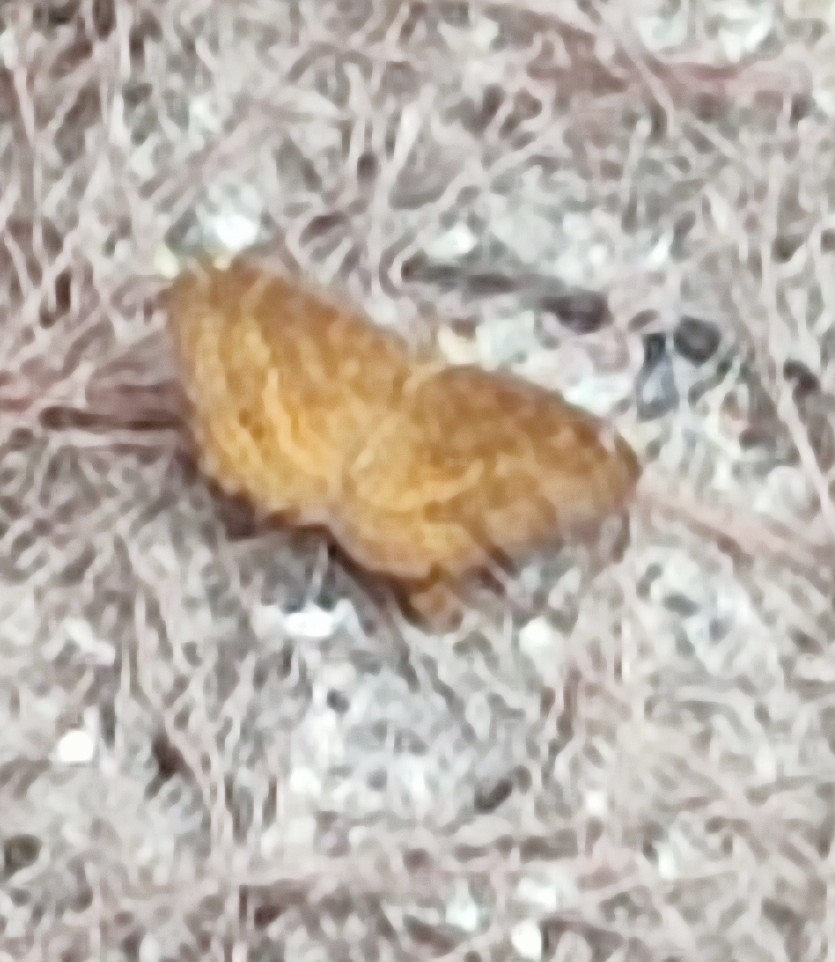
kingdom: Animalia
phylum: Arthropoda
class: Insecta
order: Lepidoptera
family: Nymphalidae
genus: Ariadne
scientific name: Ariadne merione
